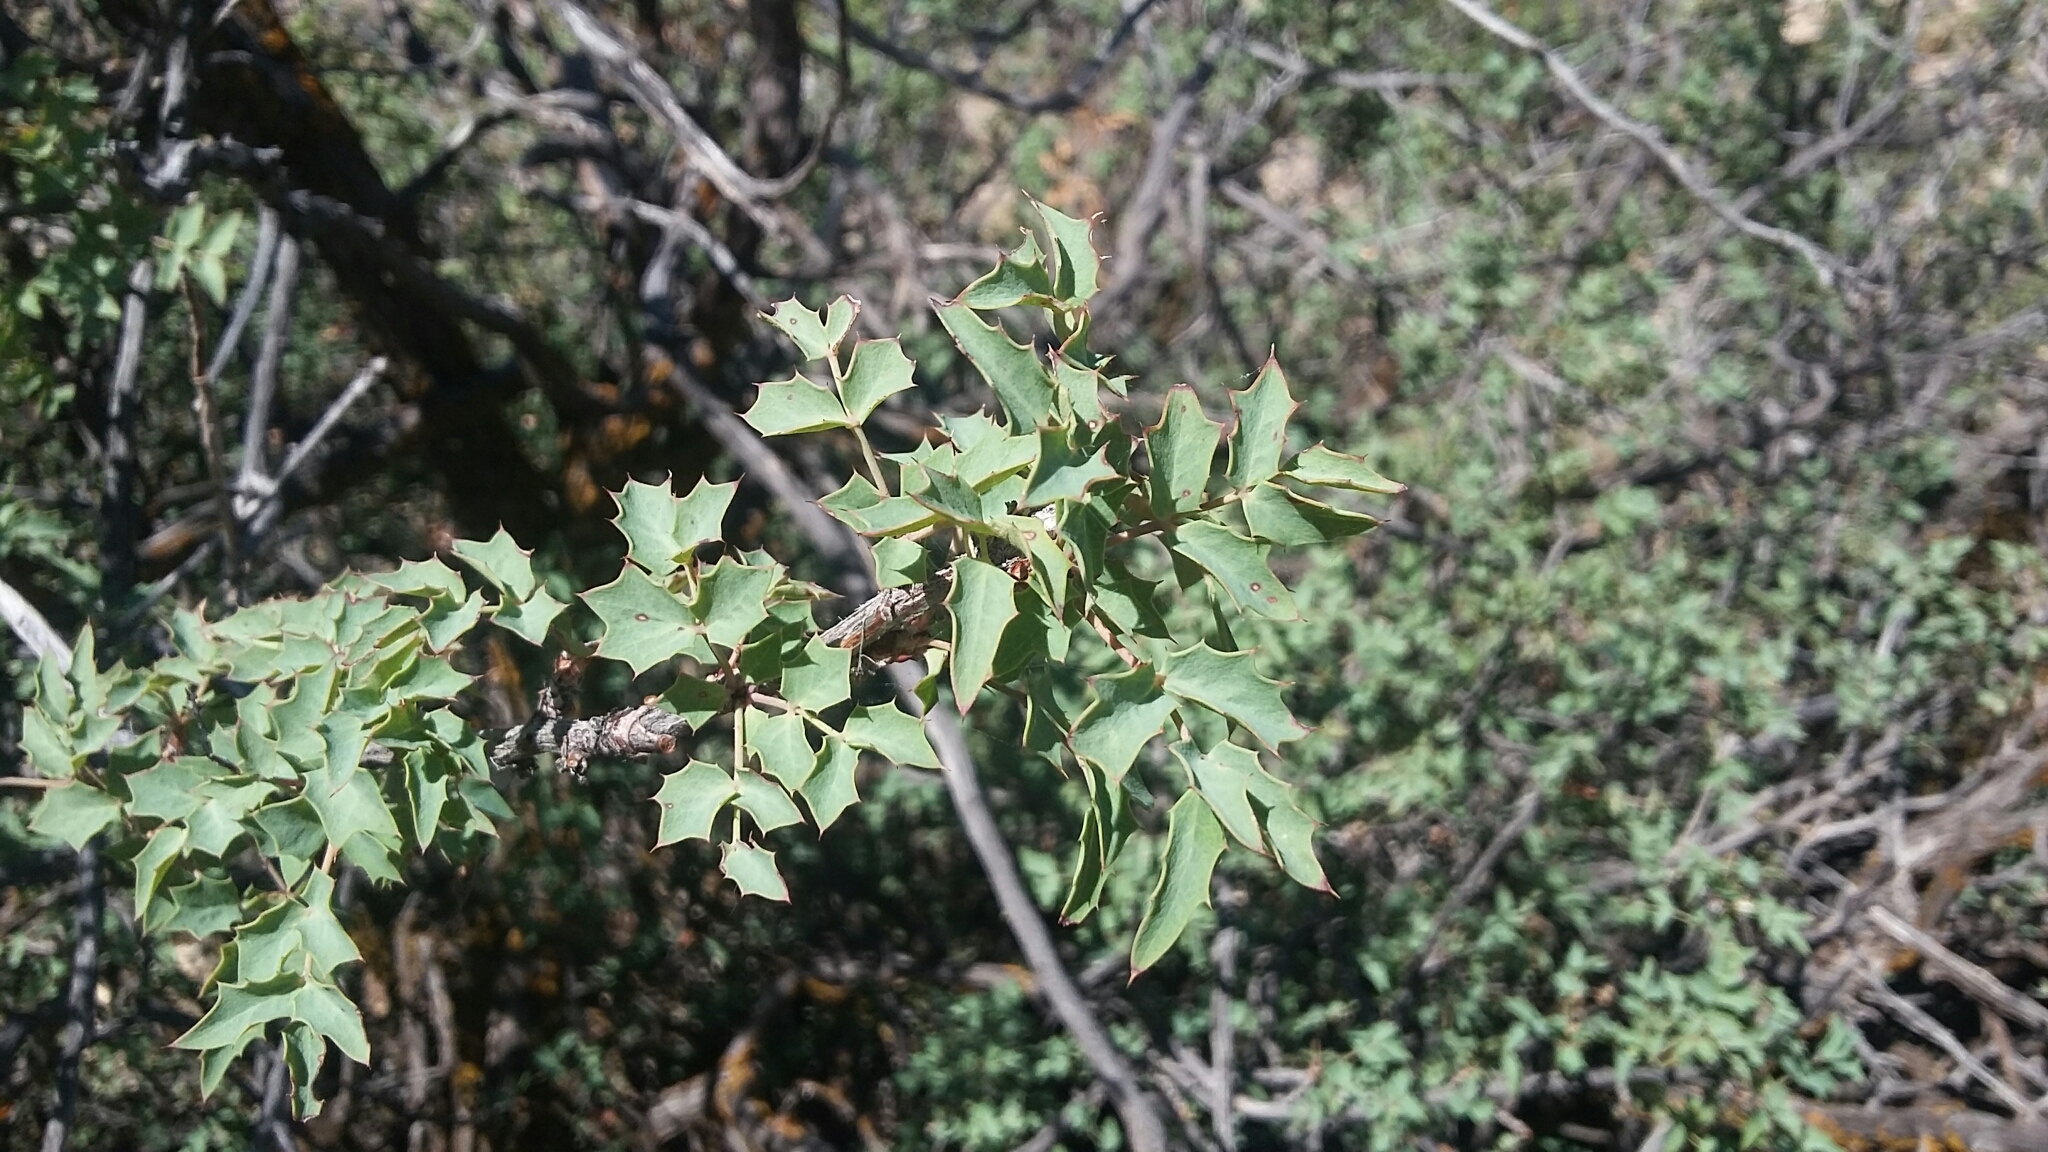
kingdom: Plantae
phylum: Tracheophyta
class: Magnoliopsida
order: Ranunculales
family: Berberidaceae
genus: Alloberberis
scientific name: Alloberberis fremontii
